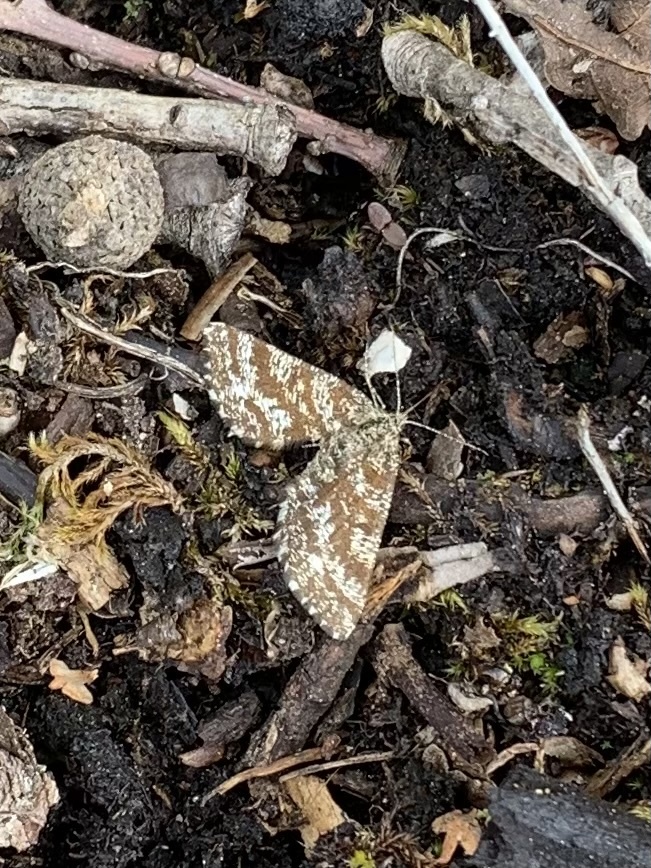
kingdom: Animalia
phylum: Arthropoda
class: Insecta
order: Lepidoptera
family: Geometridae
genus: Ematurga
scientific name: Ematurga atomaria
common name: Common heath
